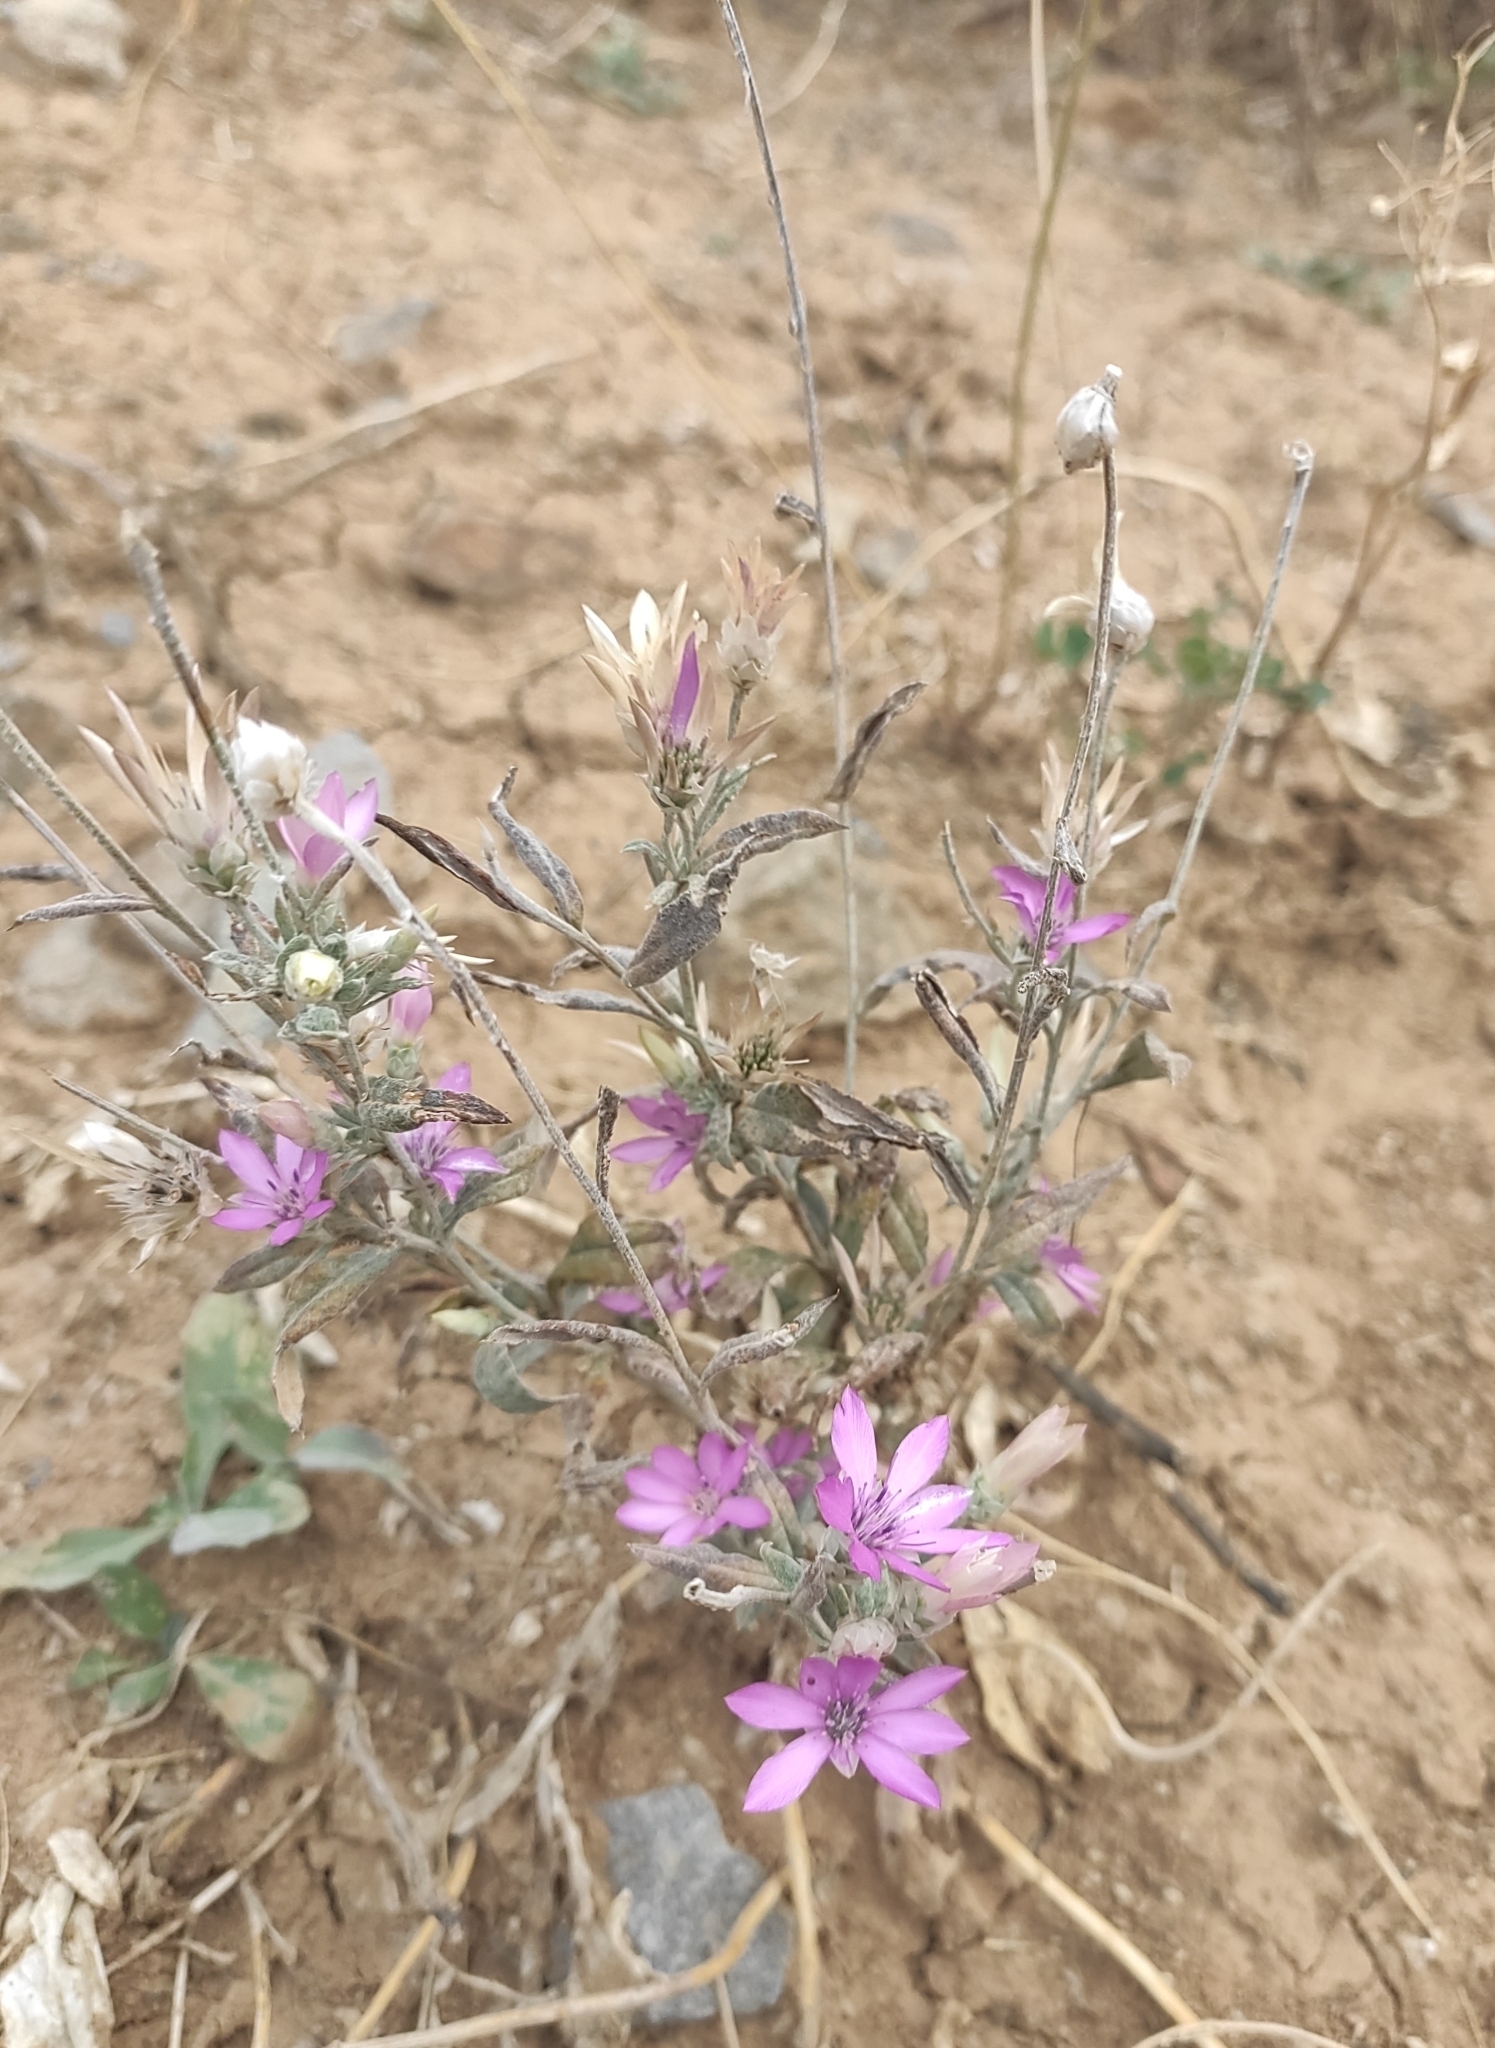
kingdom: Plantae
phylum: Tracheophyta
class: Magnoliopsida
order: Asterales
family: Asteraceae
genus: Xeranthemum
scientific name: Xeranthemum annuum
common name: Immortelle
